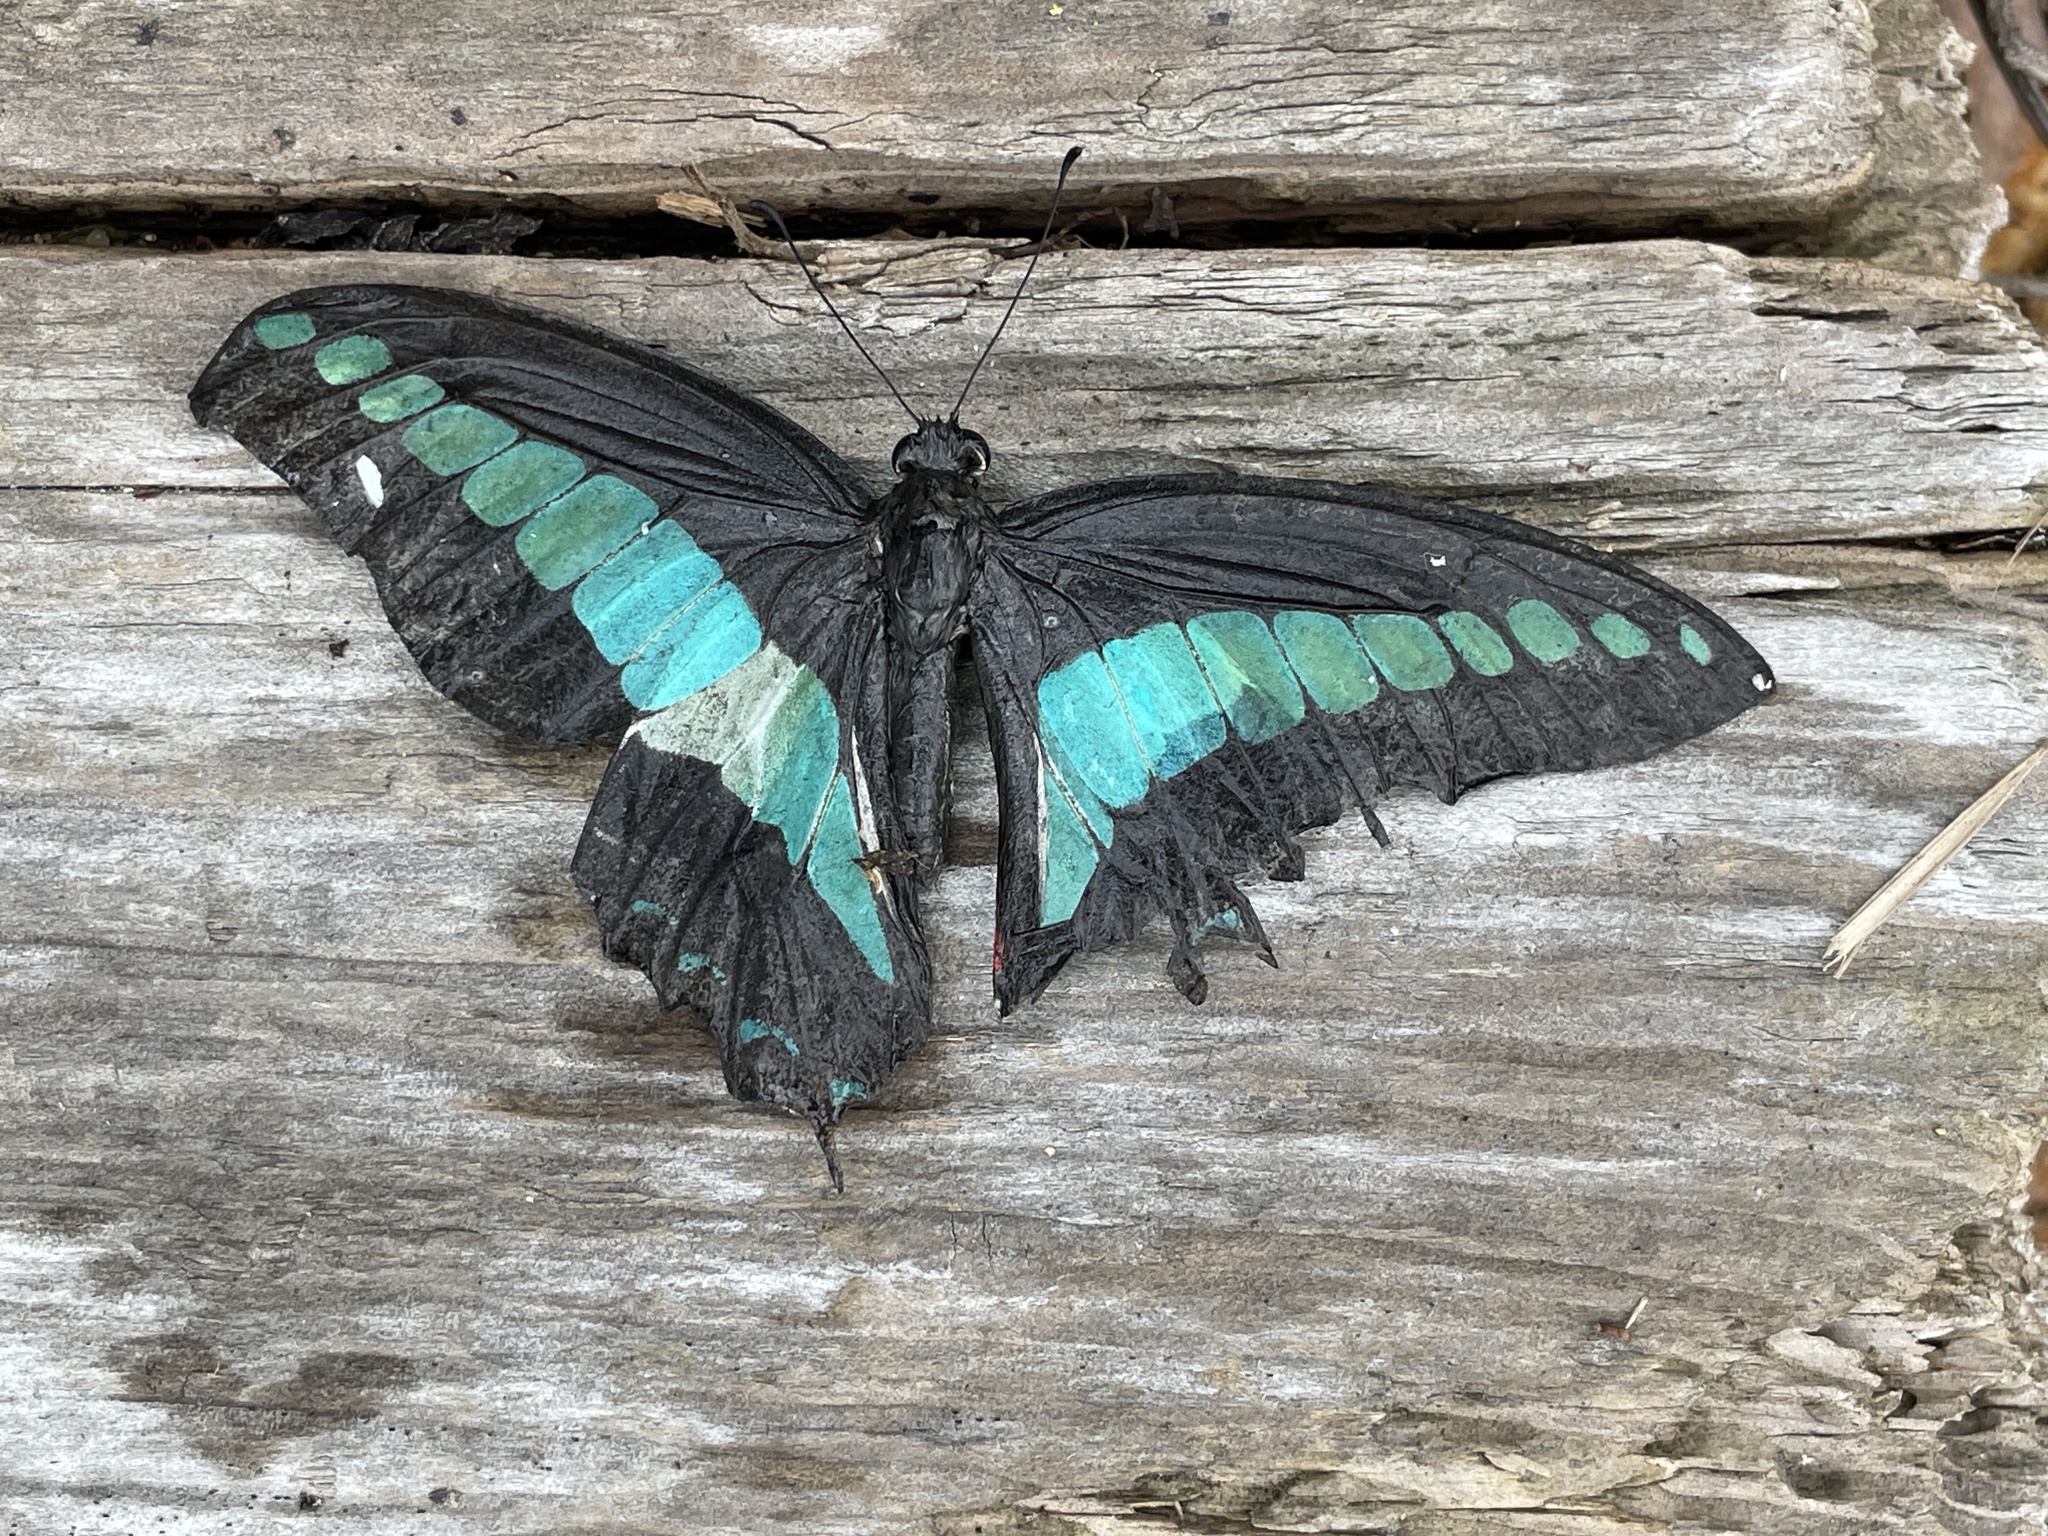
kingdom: Fungi
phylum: Ascomycota
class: Sordariomycetes
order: Microascales
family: Microascaceae
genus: Graphium
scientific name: Graphium sarpedon
